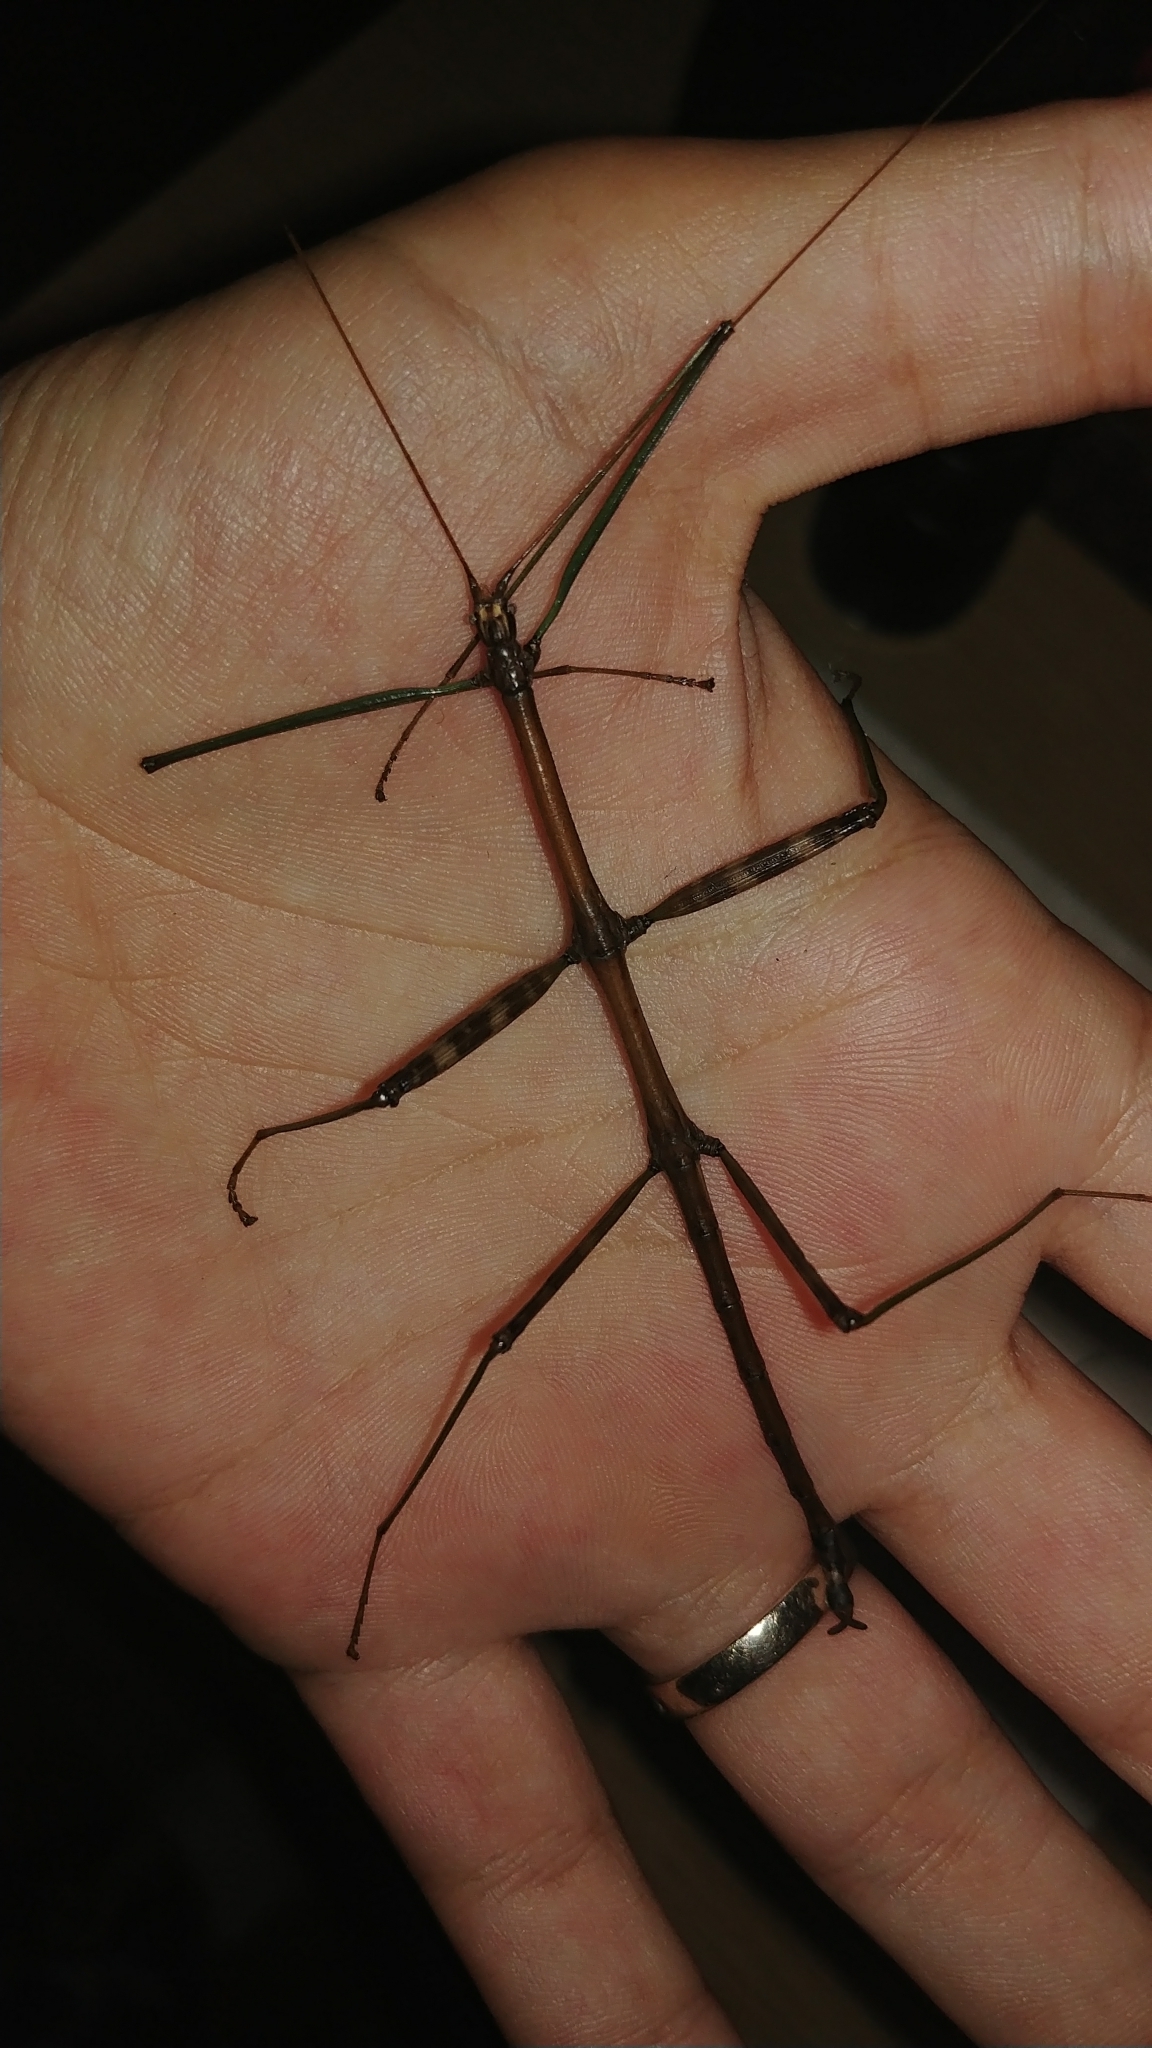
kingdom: Animalia
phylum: Arthropoda
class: Insecta
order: Phasmida
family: Diapheromeridae
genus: Diapheromera
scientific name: Diapheromera femorata
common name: Common american walkingstick
